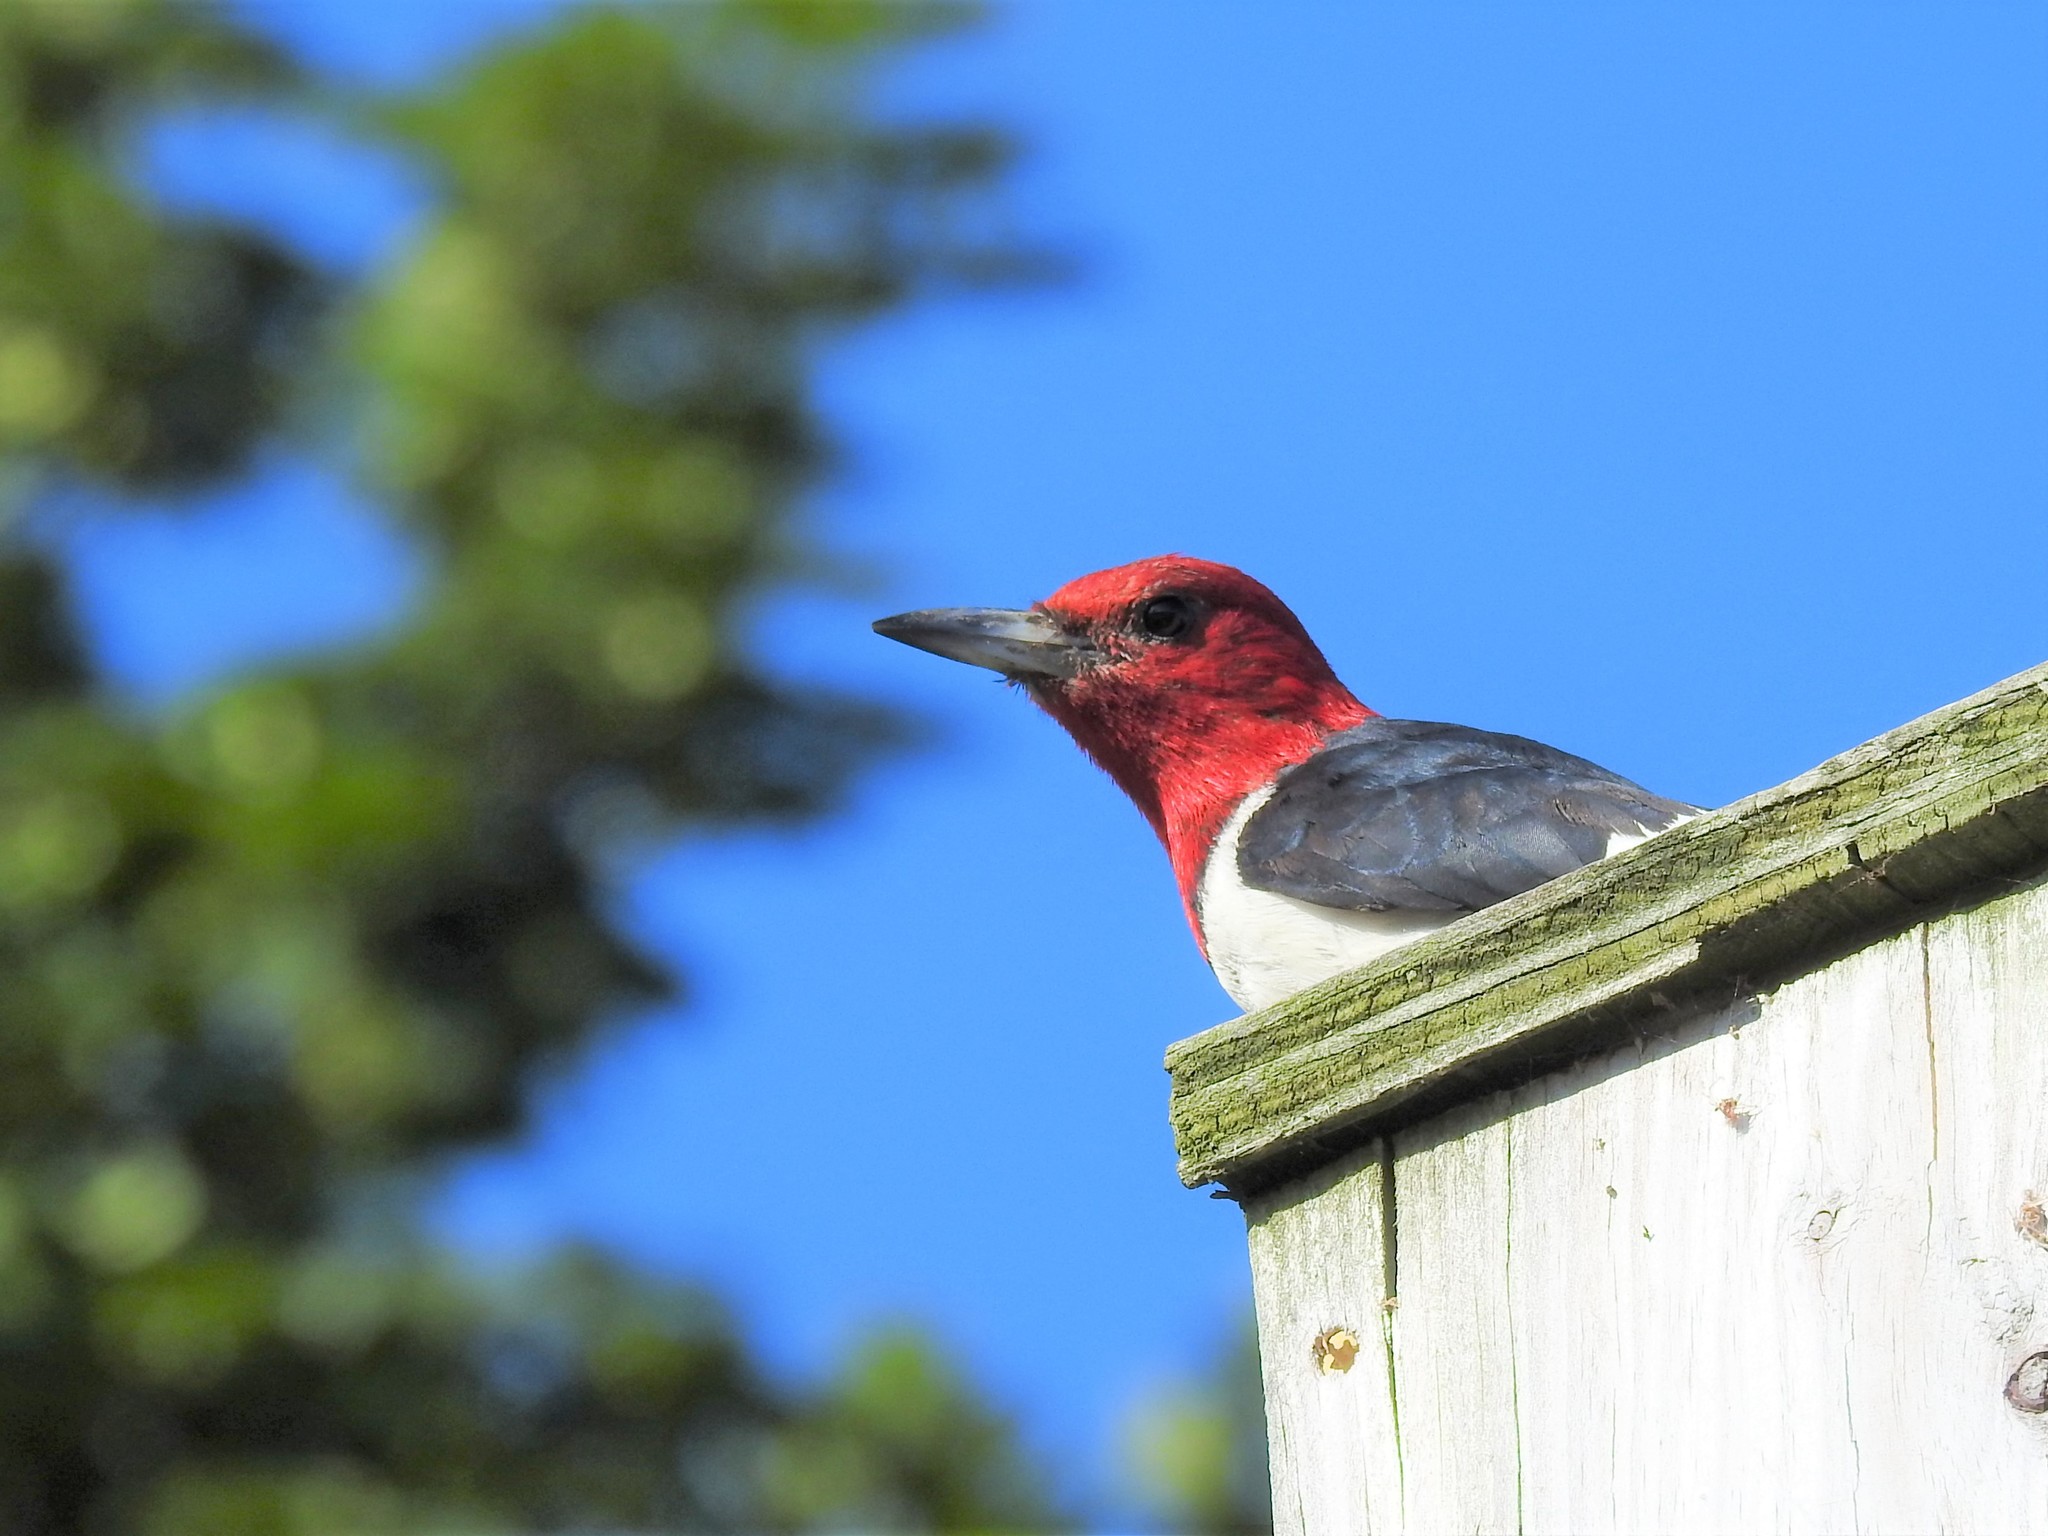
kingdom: Animalia
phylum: Chordata
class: Aves
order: Piciformes
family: Picidae
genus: Melanerpes
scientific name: Melanerpes erythrocephalus
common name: Red-headed woodpecker
